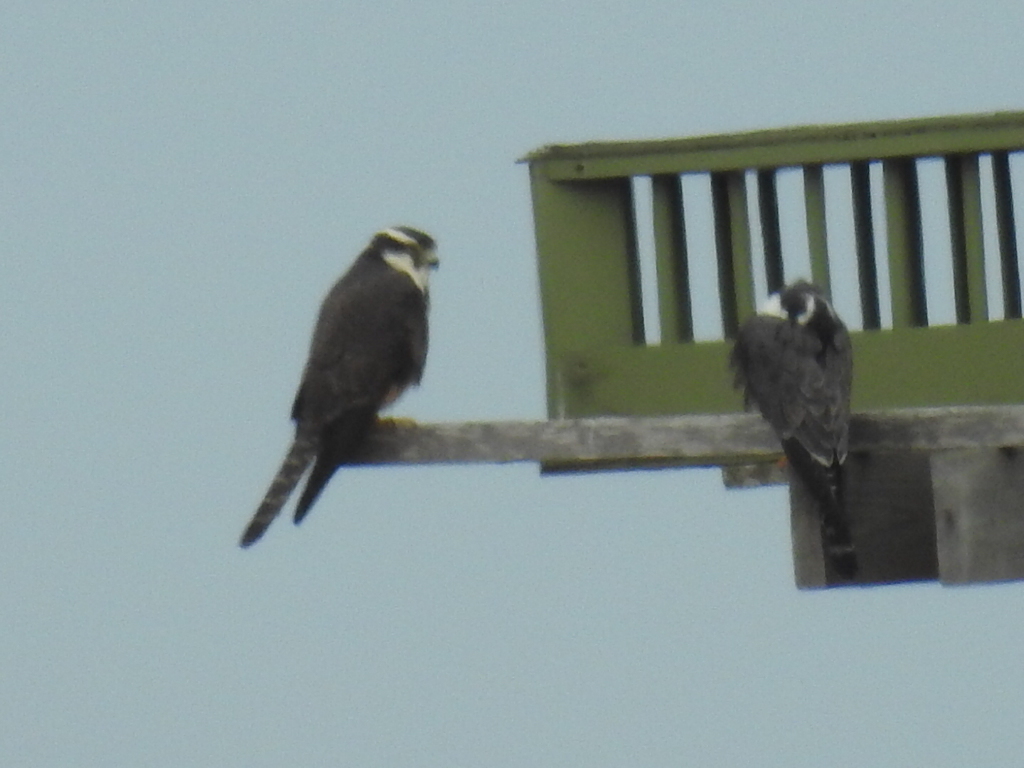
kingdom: Animalia
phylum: Chordata
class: Aves
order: Falconiformes
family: Falconidae
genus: Falco
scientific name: Falco femoralis
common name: Aplomado falcon
